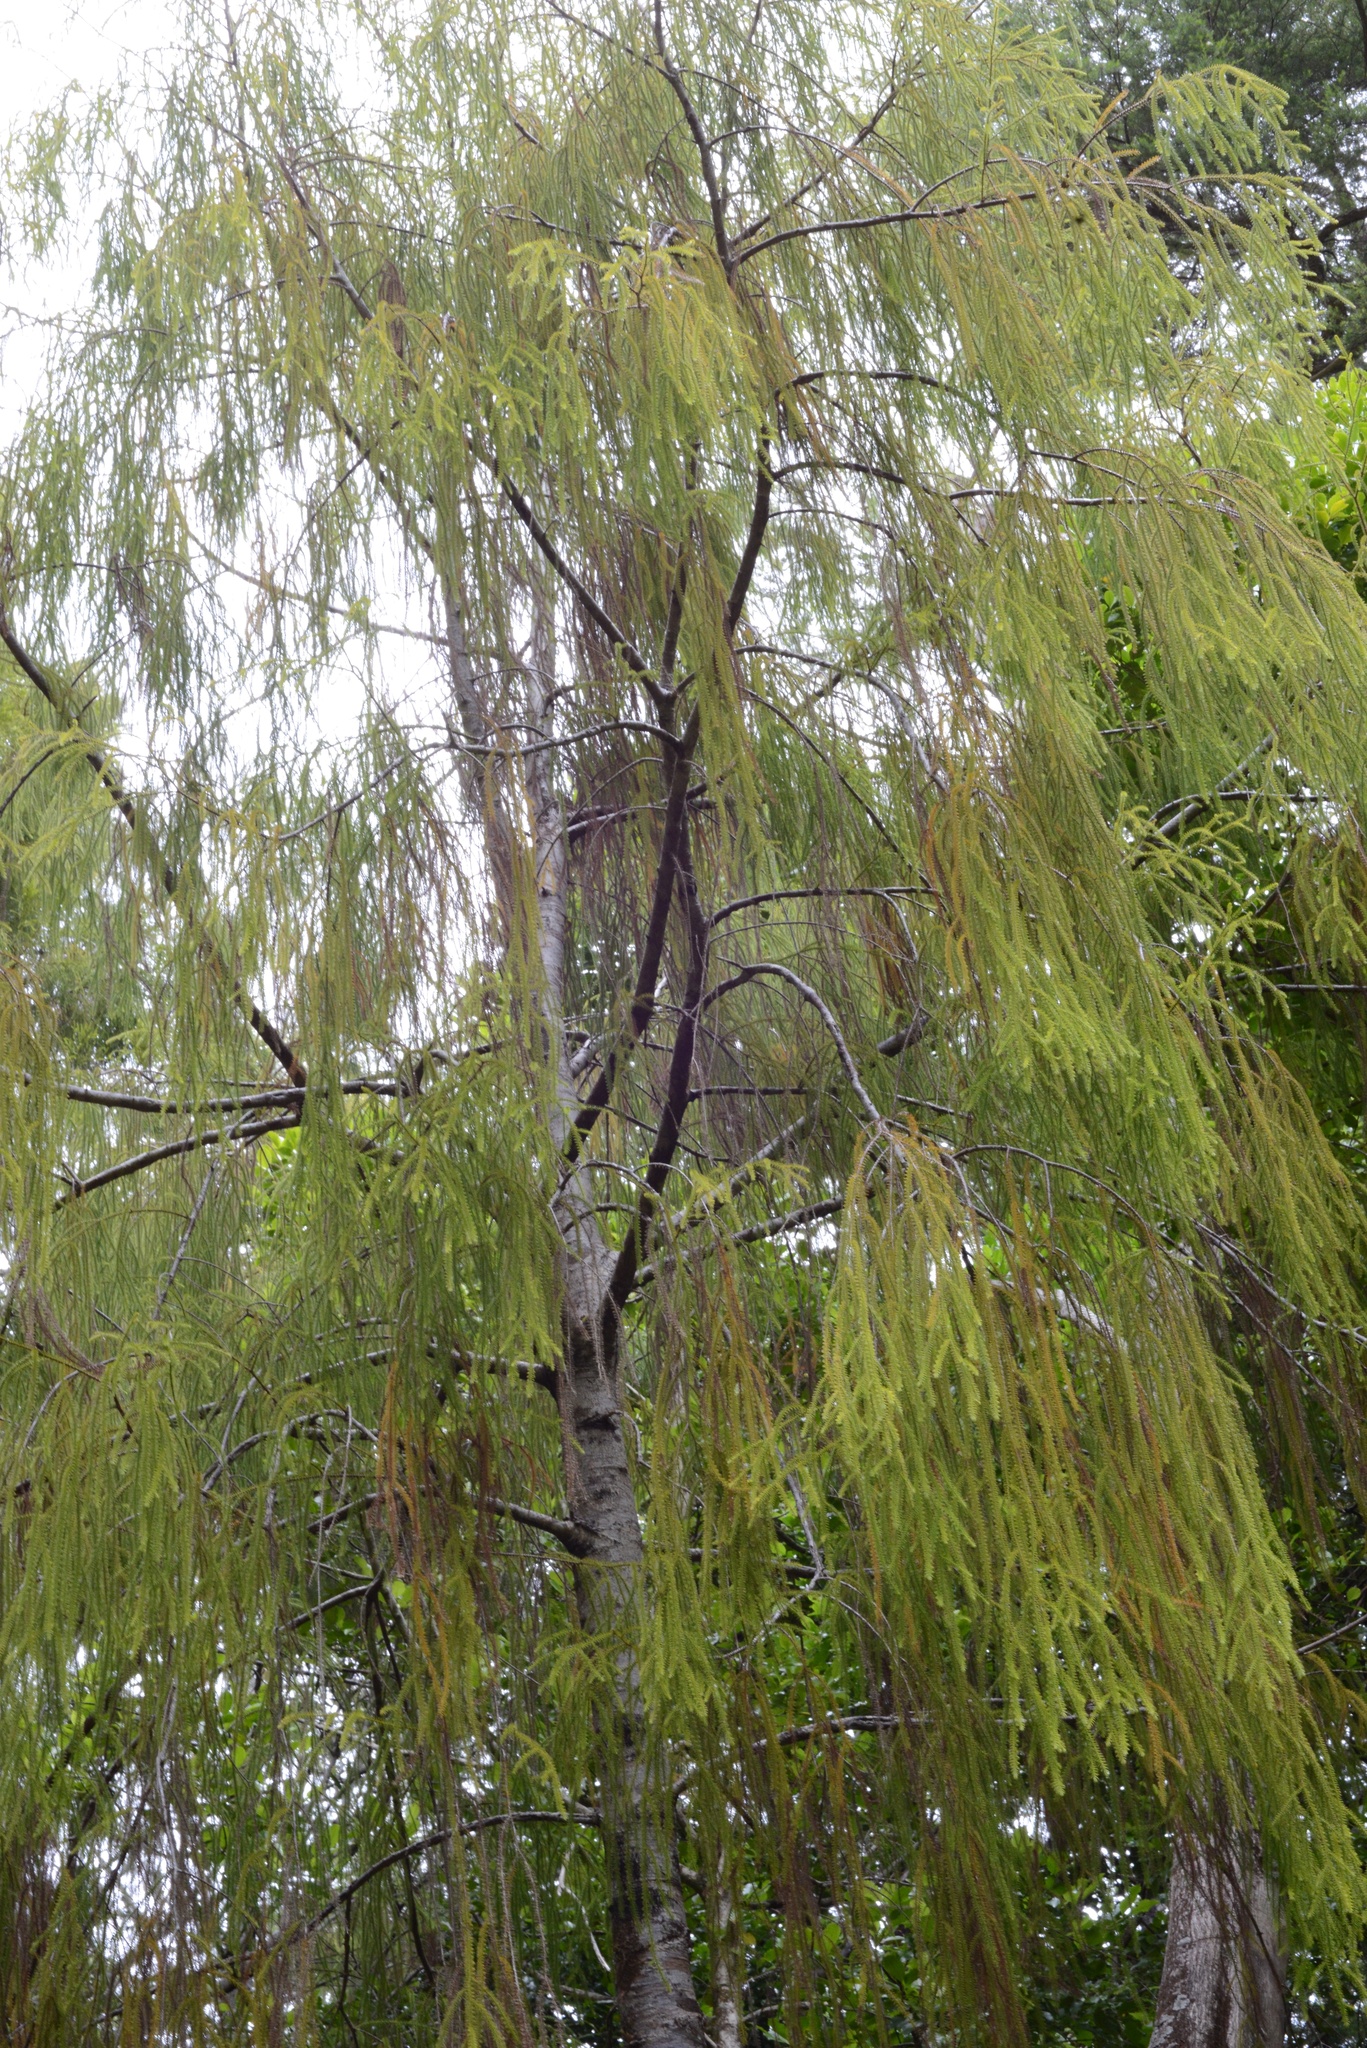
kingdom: Plantae
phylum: Tracheophyta
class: Pinopsida
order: Pinales
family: Podocarpaceae
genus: Dacrydium
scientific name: Dacrydium cupressinum
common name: Red pine
